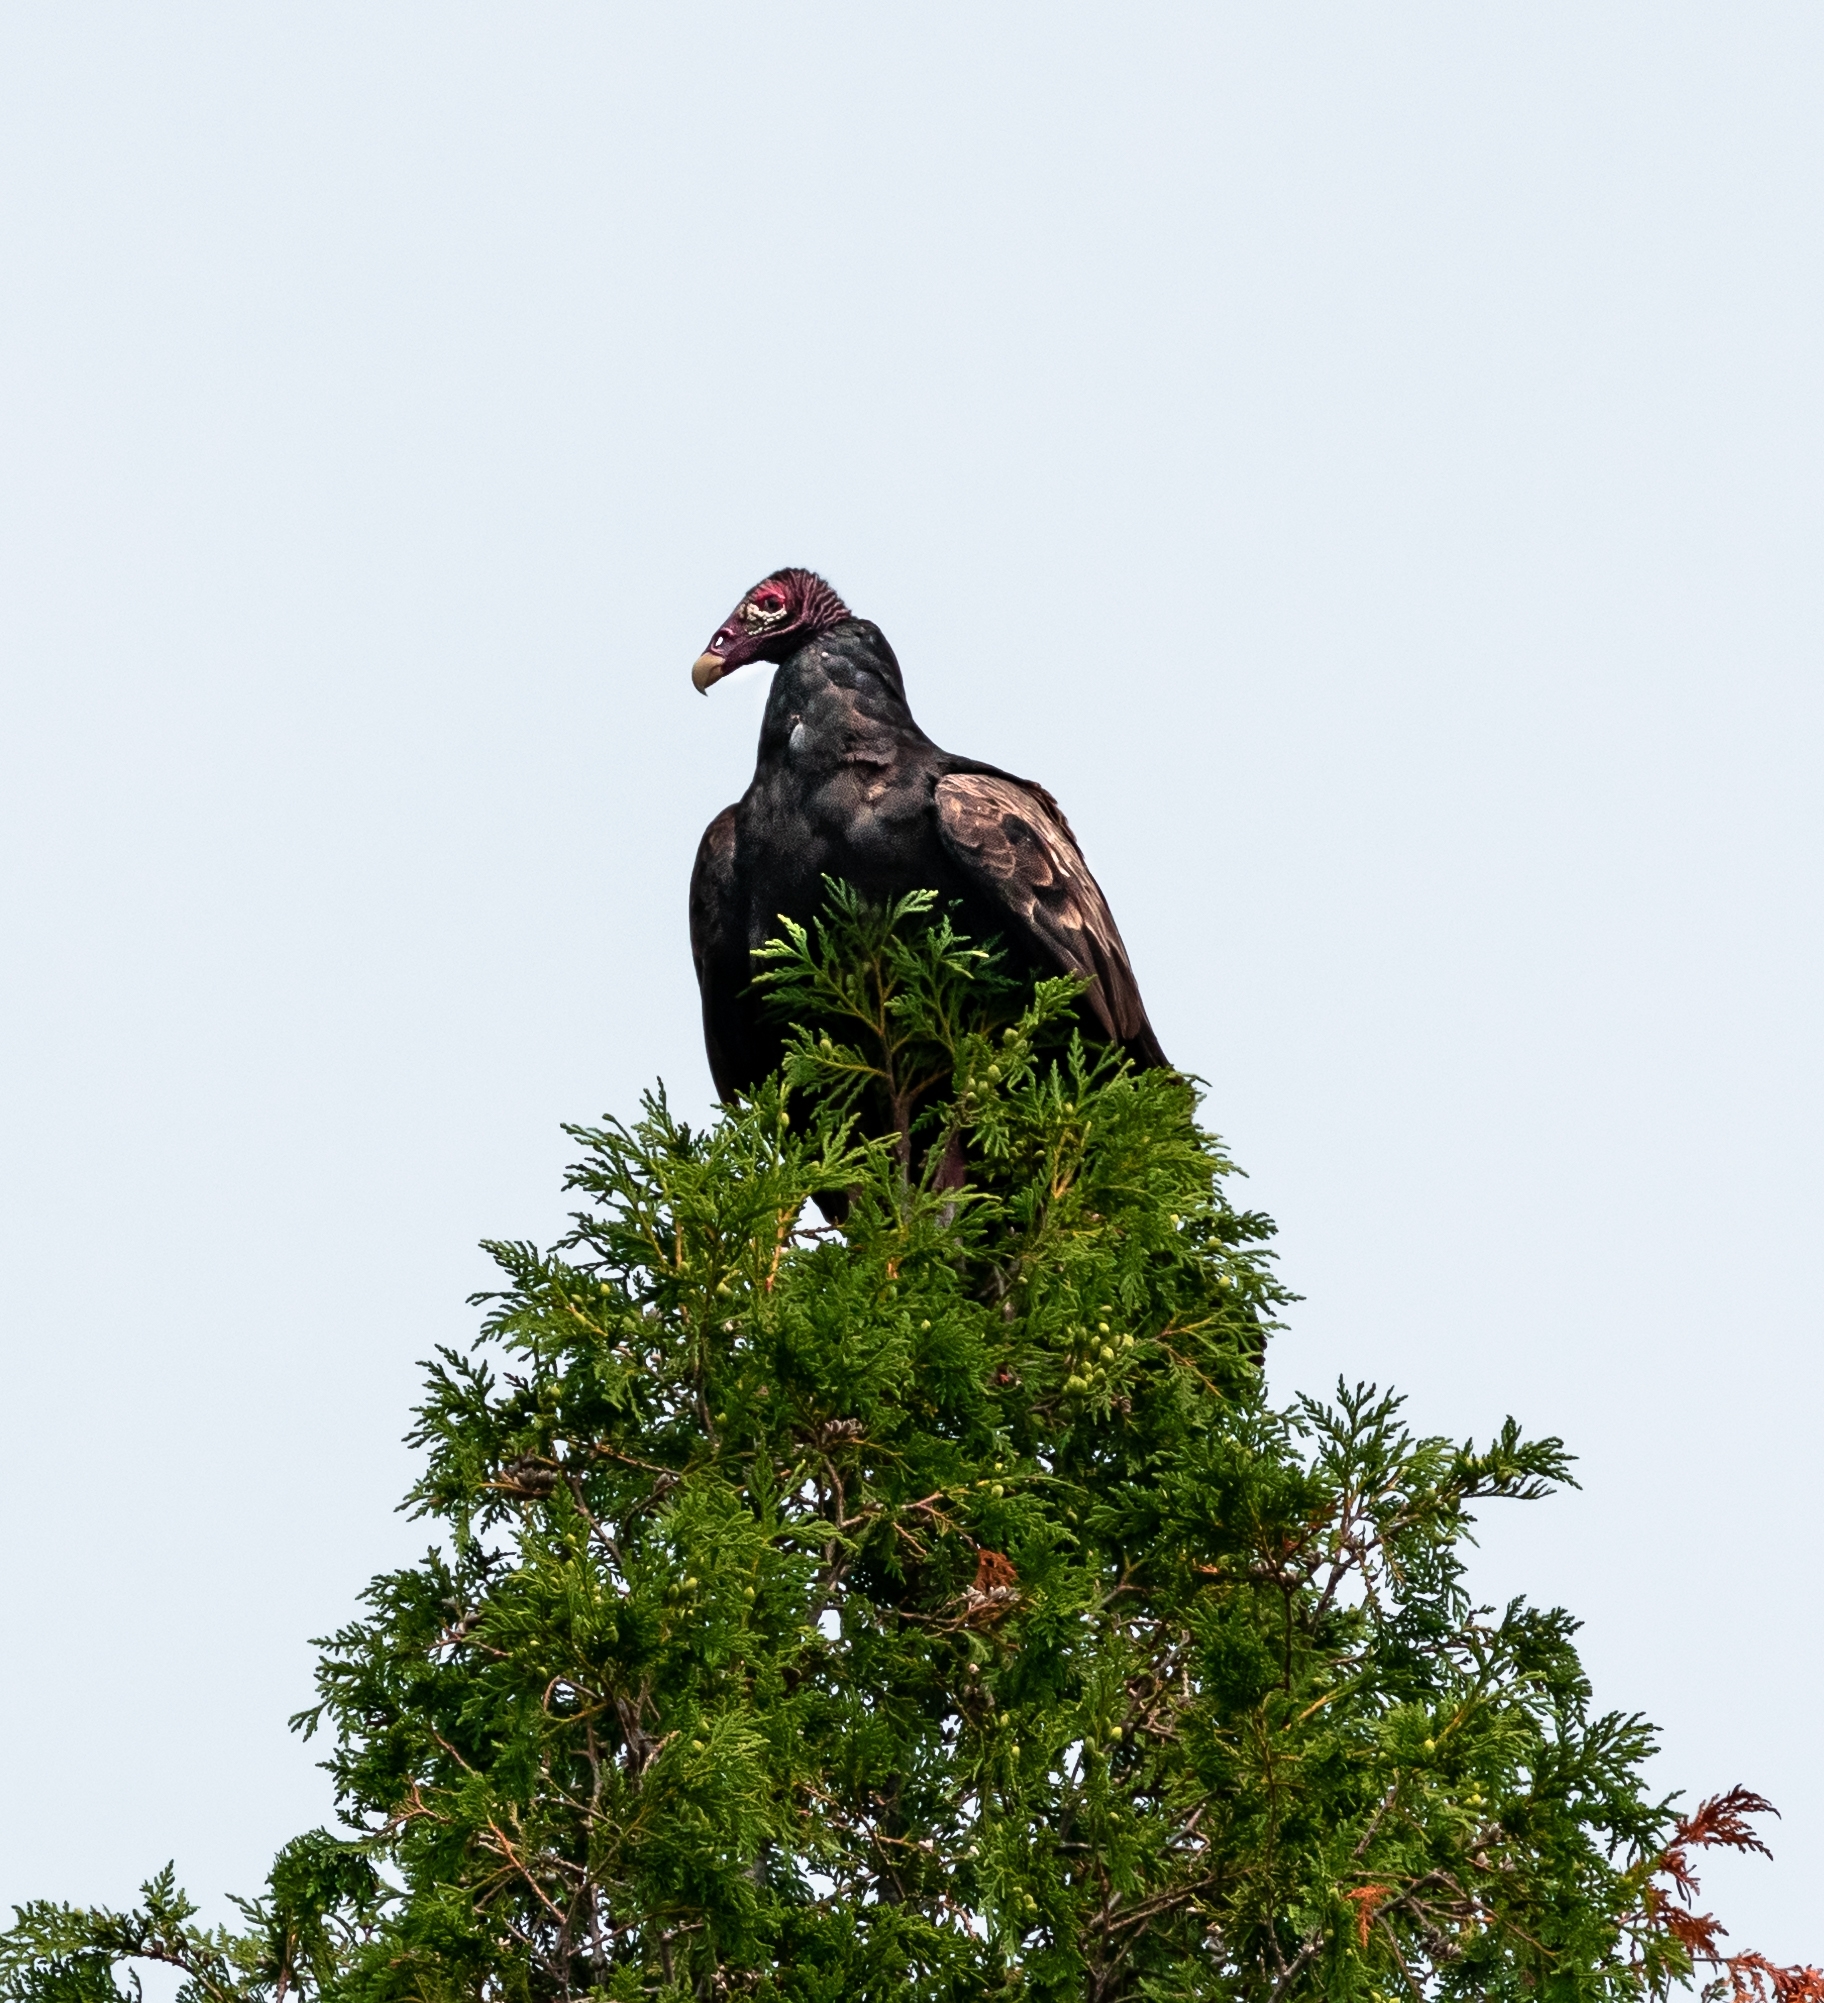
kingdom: Animalia
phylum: Chordata
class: Aves
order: Accipitriformes
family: Cathartidae
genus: Cathartes
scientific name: Cathartes aura
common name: Turkey vulture
